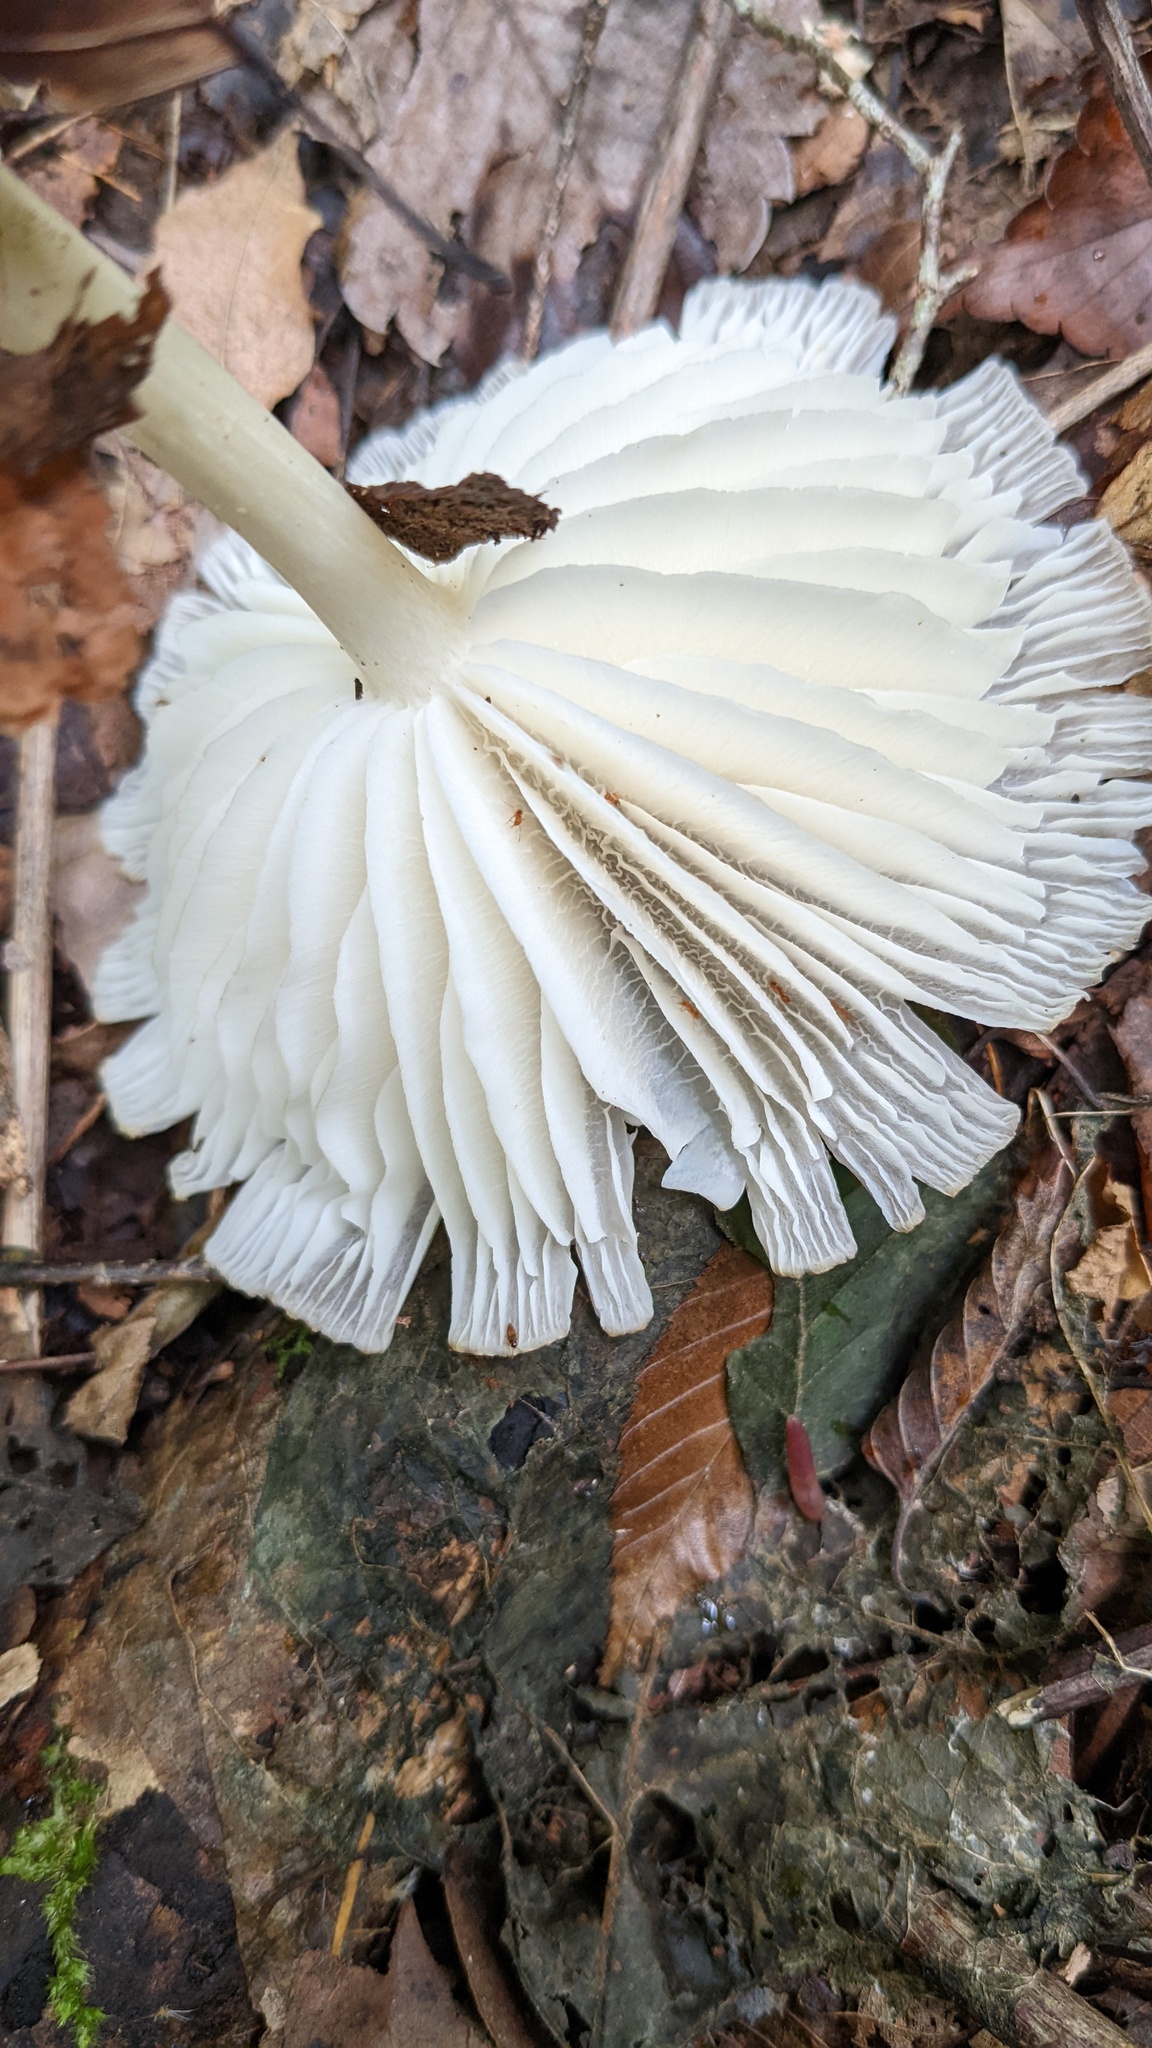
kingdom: Fungi
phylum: Basidiomycota
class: Agaricomycetes
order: Agaricales
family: Tricholomataceae
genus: Megacollybia
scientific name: Megacollybia clitocyboidea
